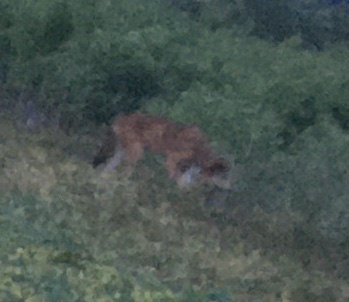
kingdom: Animalia
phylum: Chordata
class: Mammalia
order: Carnivora
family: Canidae
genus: Canis
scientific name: Canis lupus
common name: Gray wolf
